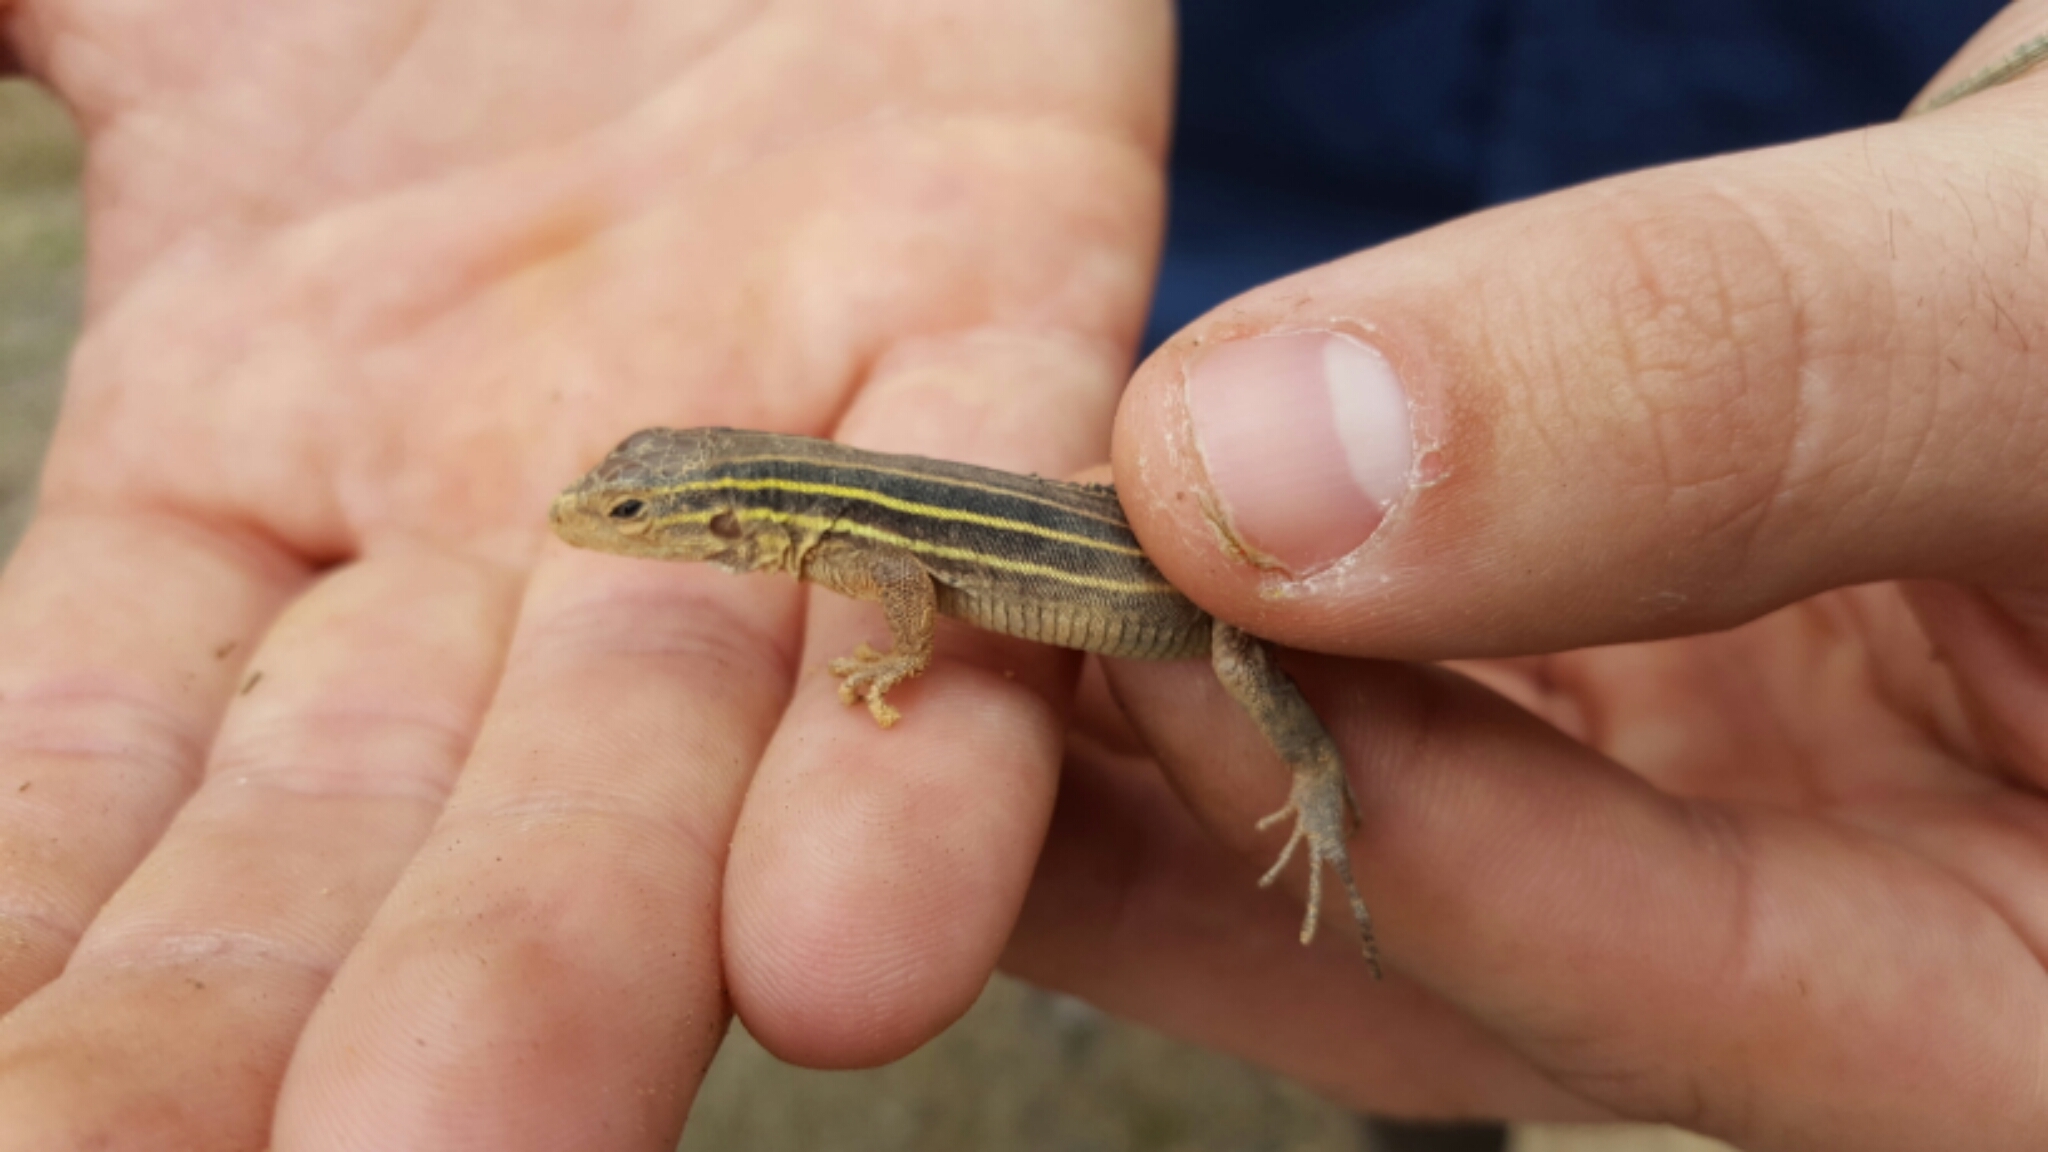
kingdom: Animalia
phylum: Chordata
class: Squamata
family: Teiidae
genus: Aspidoscelis
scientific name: Aspidoscelis sexlineatus
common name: Six-lined racerunner
